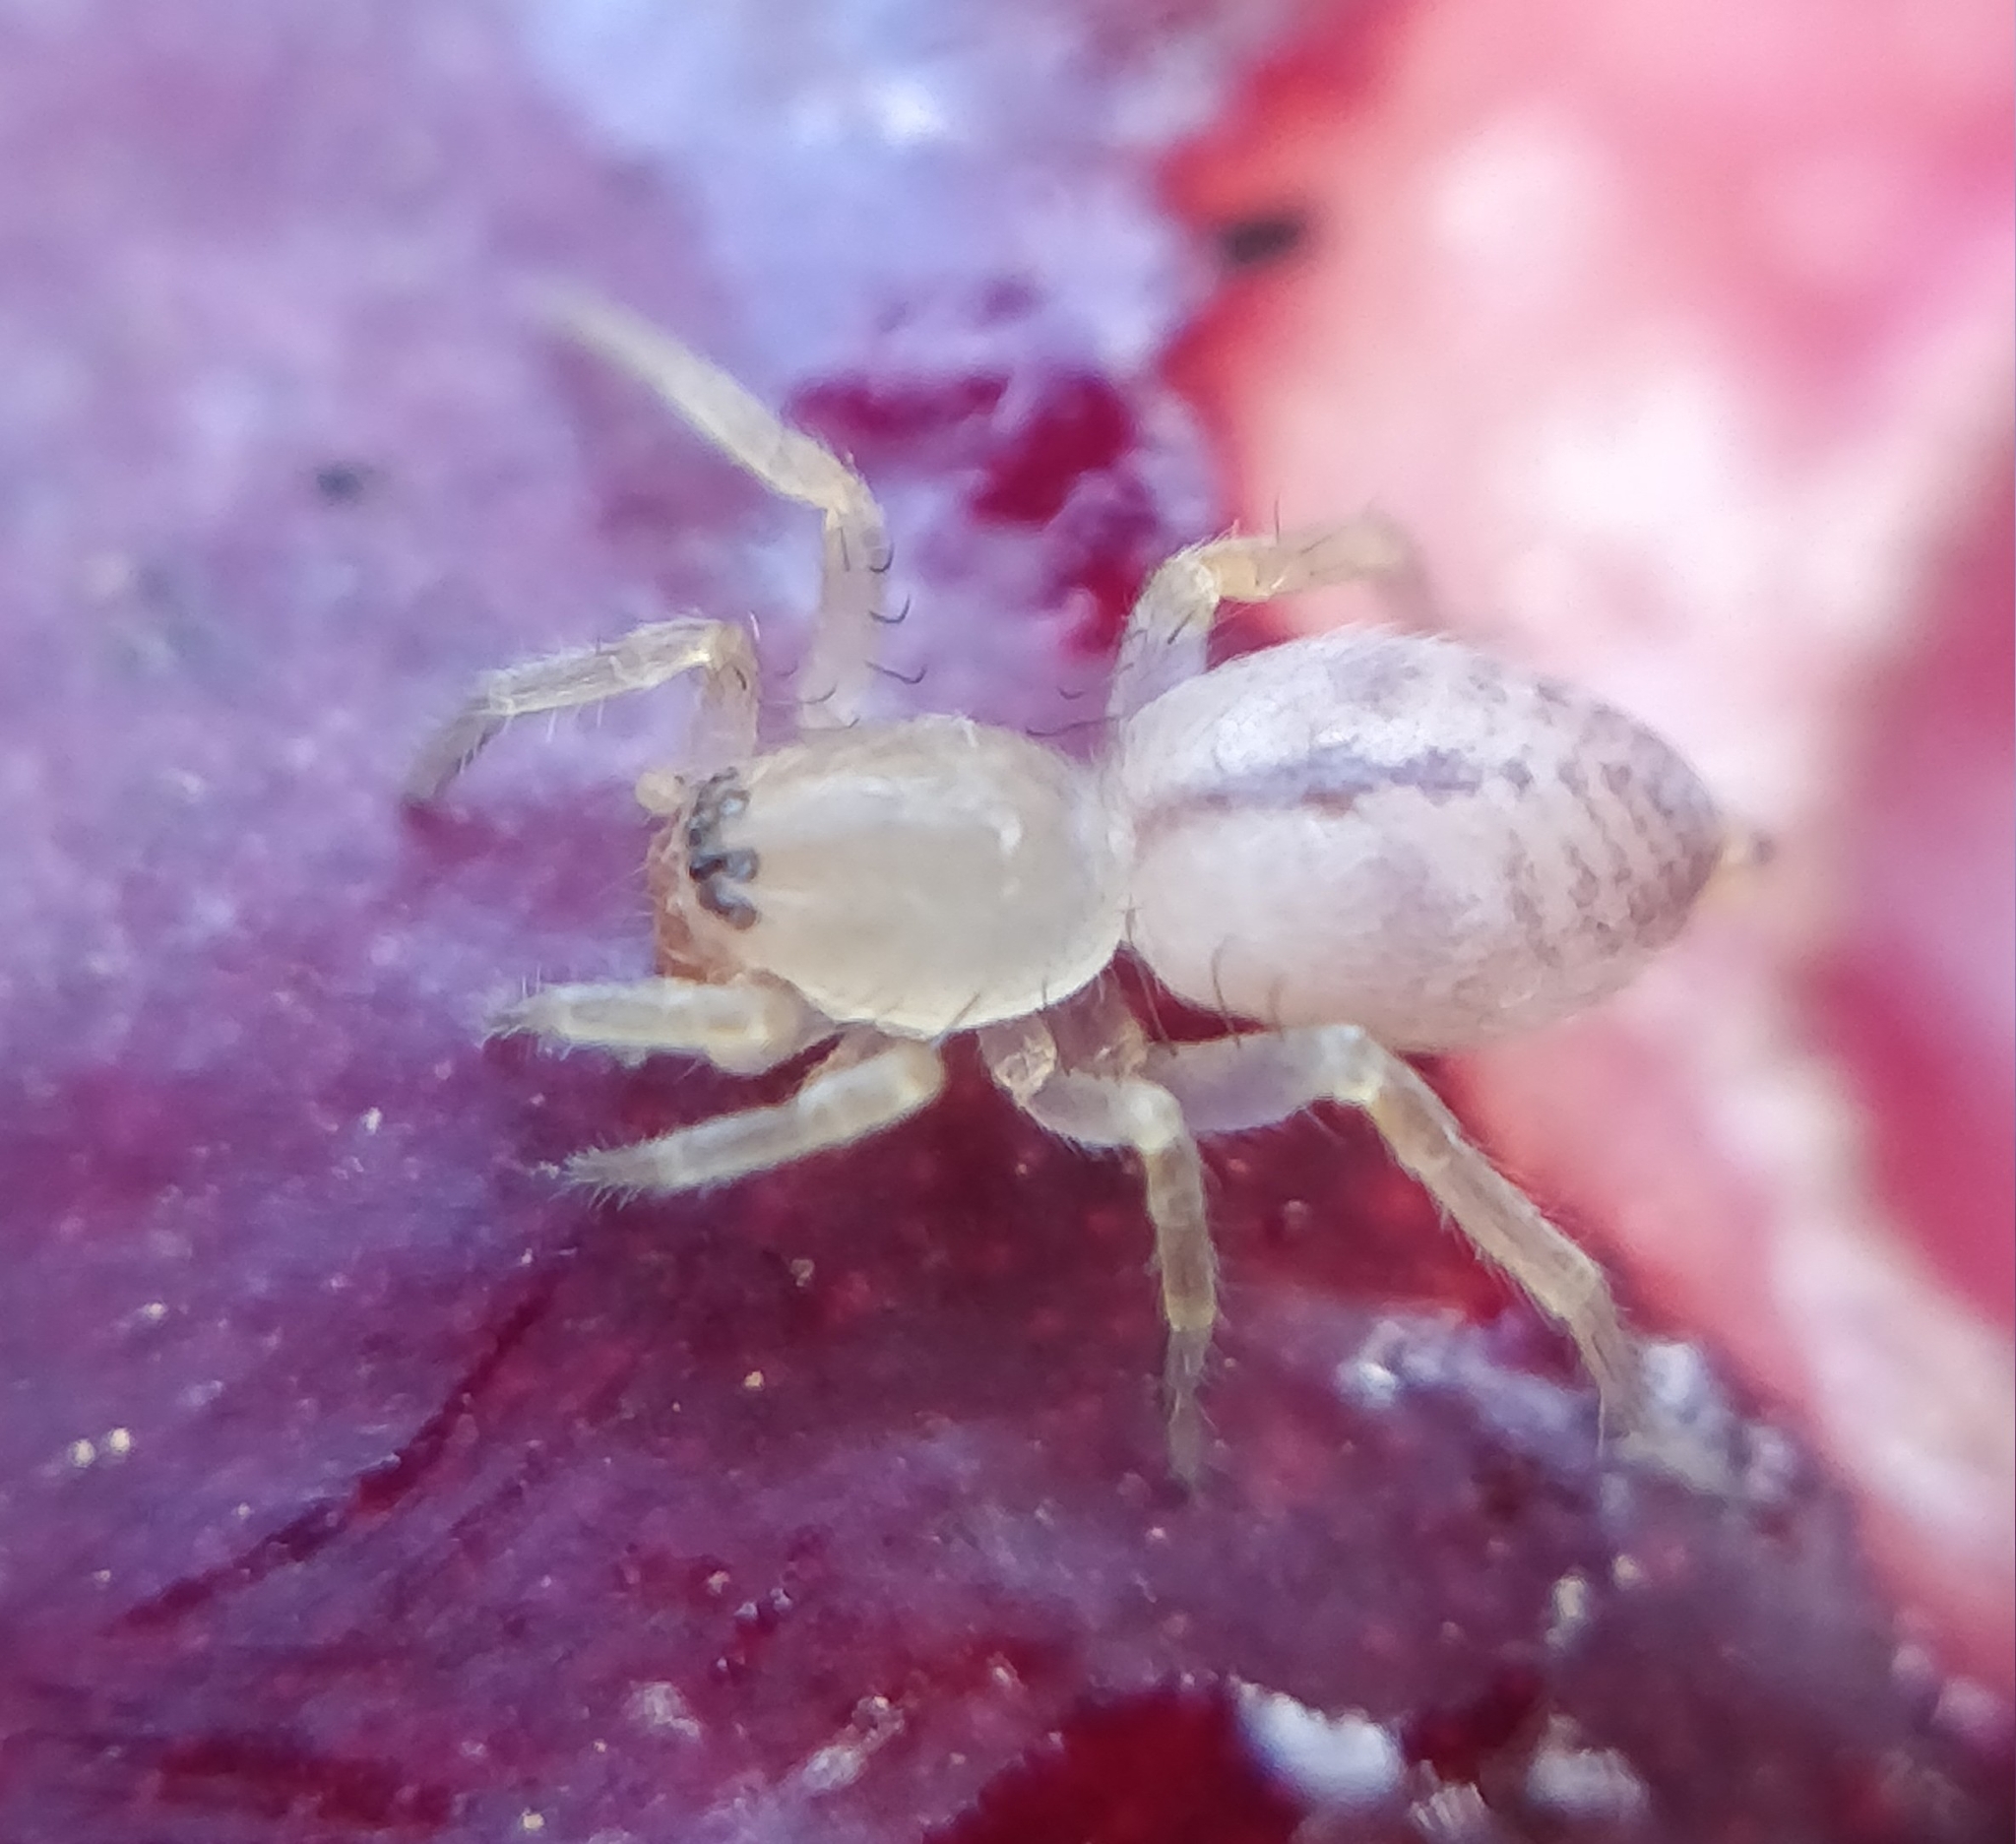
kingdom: Animalia
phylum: Arthropoda
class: Arachnida
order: Araneae
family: Clubionidae
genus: Porrhoclubiona
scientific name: Porrhoclubiona minor
